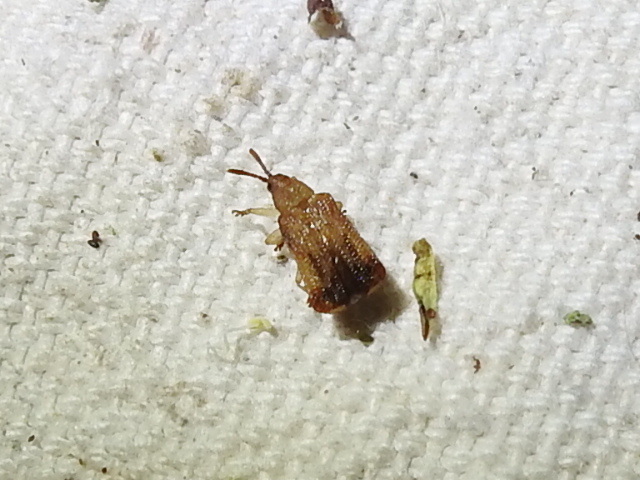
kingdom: Animalia
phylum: Arthropoda
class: Insecta
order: Coleoptera
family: Chrysomelidae
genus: Baliosus
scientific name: Baliosus nervosus
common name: Basswood leaf miner
